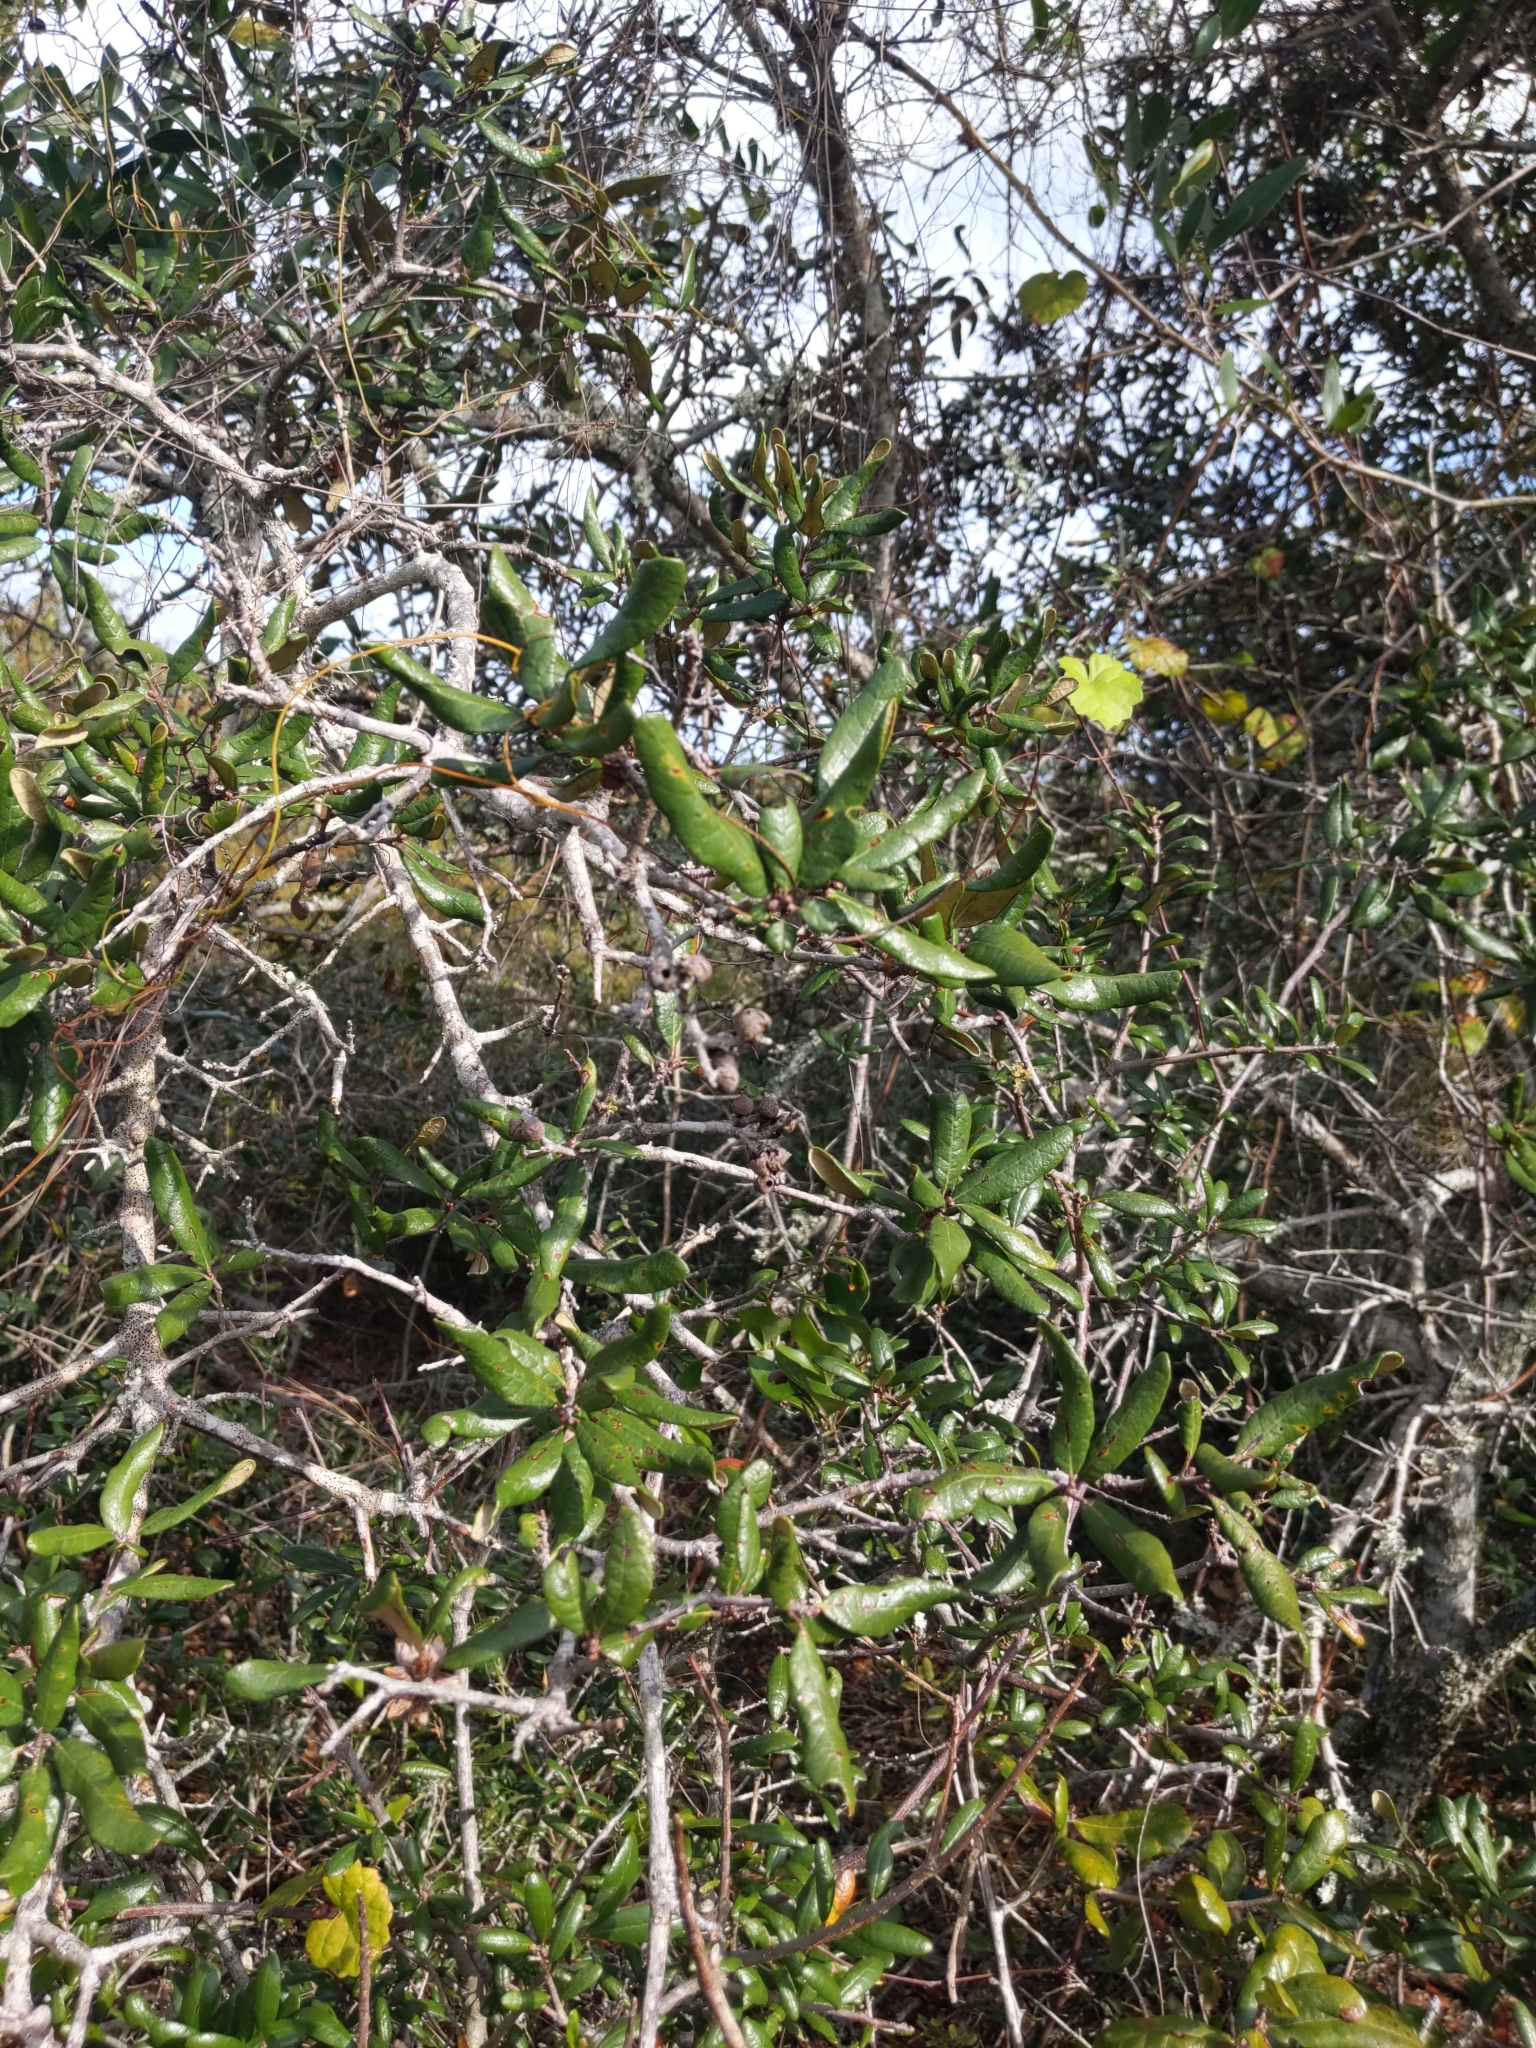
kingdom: Plantae
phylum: Tracheophyta
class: Magnoliopsida
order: Fagales
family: Fagaceae
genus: Quercus
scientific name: Quercus geminata
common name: Sand live oak
